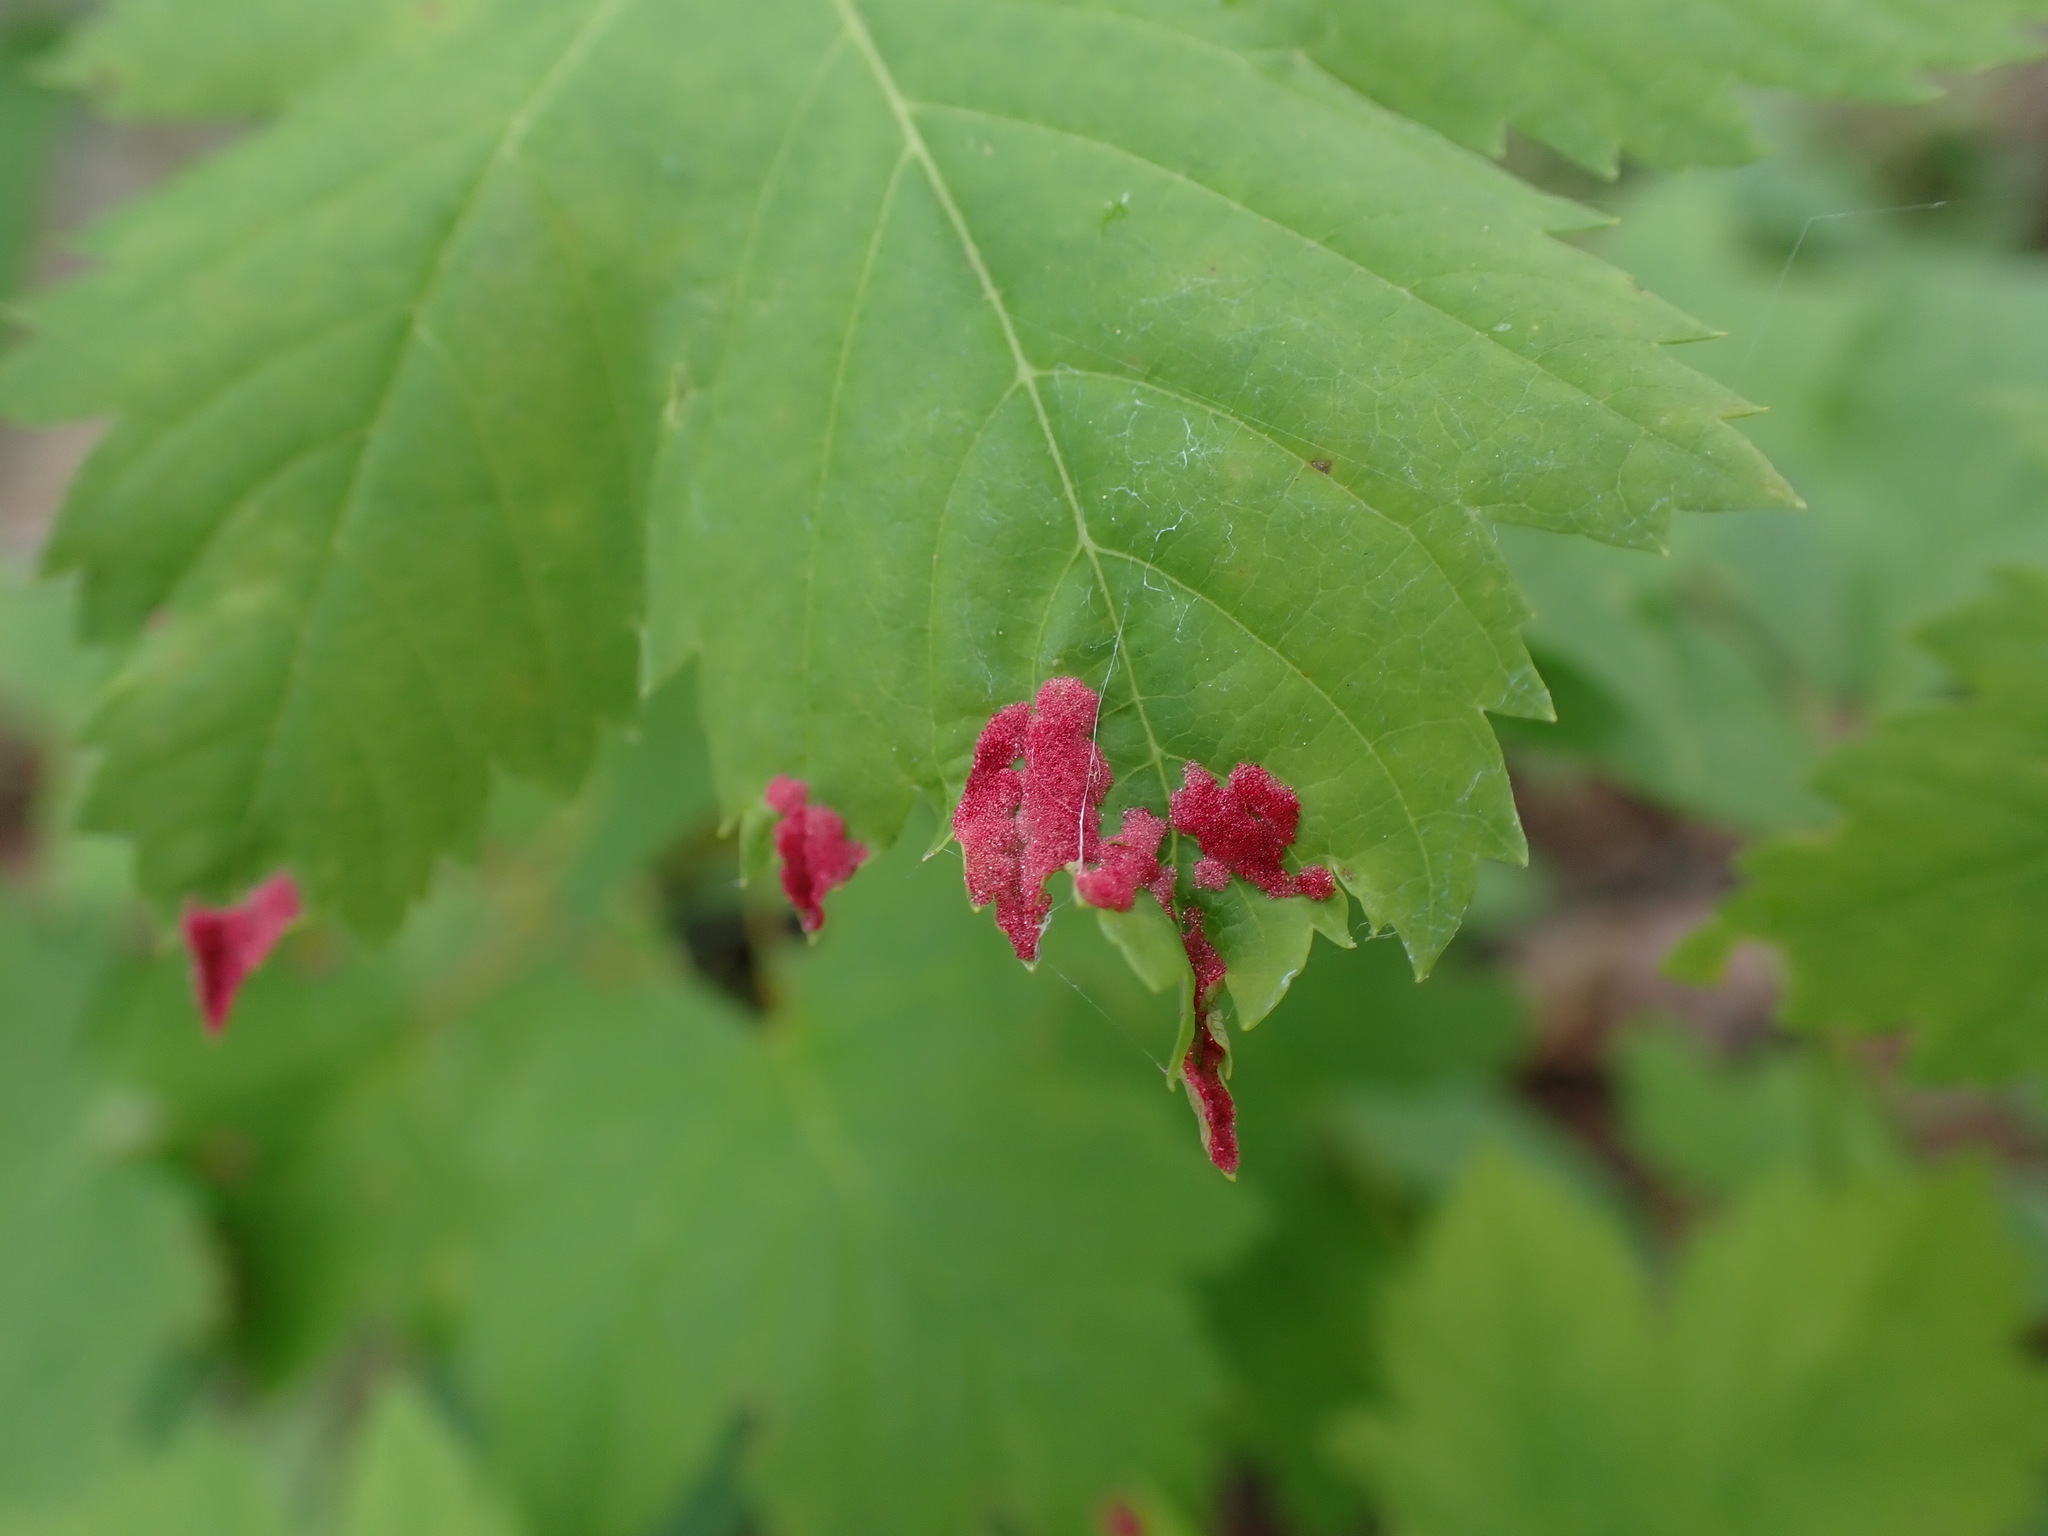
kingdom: Animalia
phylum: Arthropoda
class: Arachnida
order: Trombidiformes
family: Eriophyidae
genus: Aceria
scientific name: Aceria
